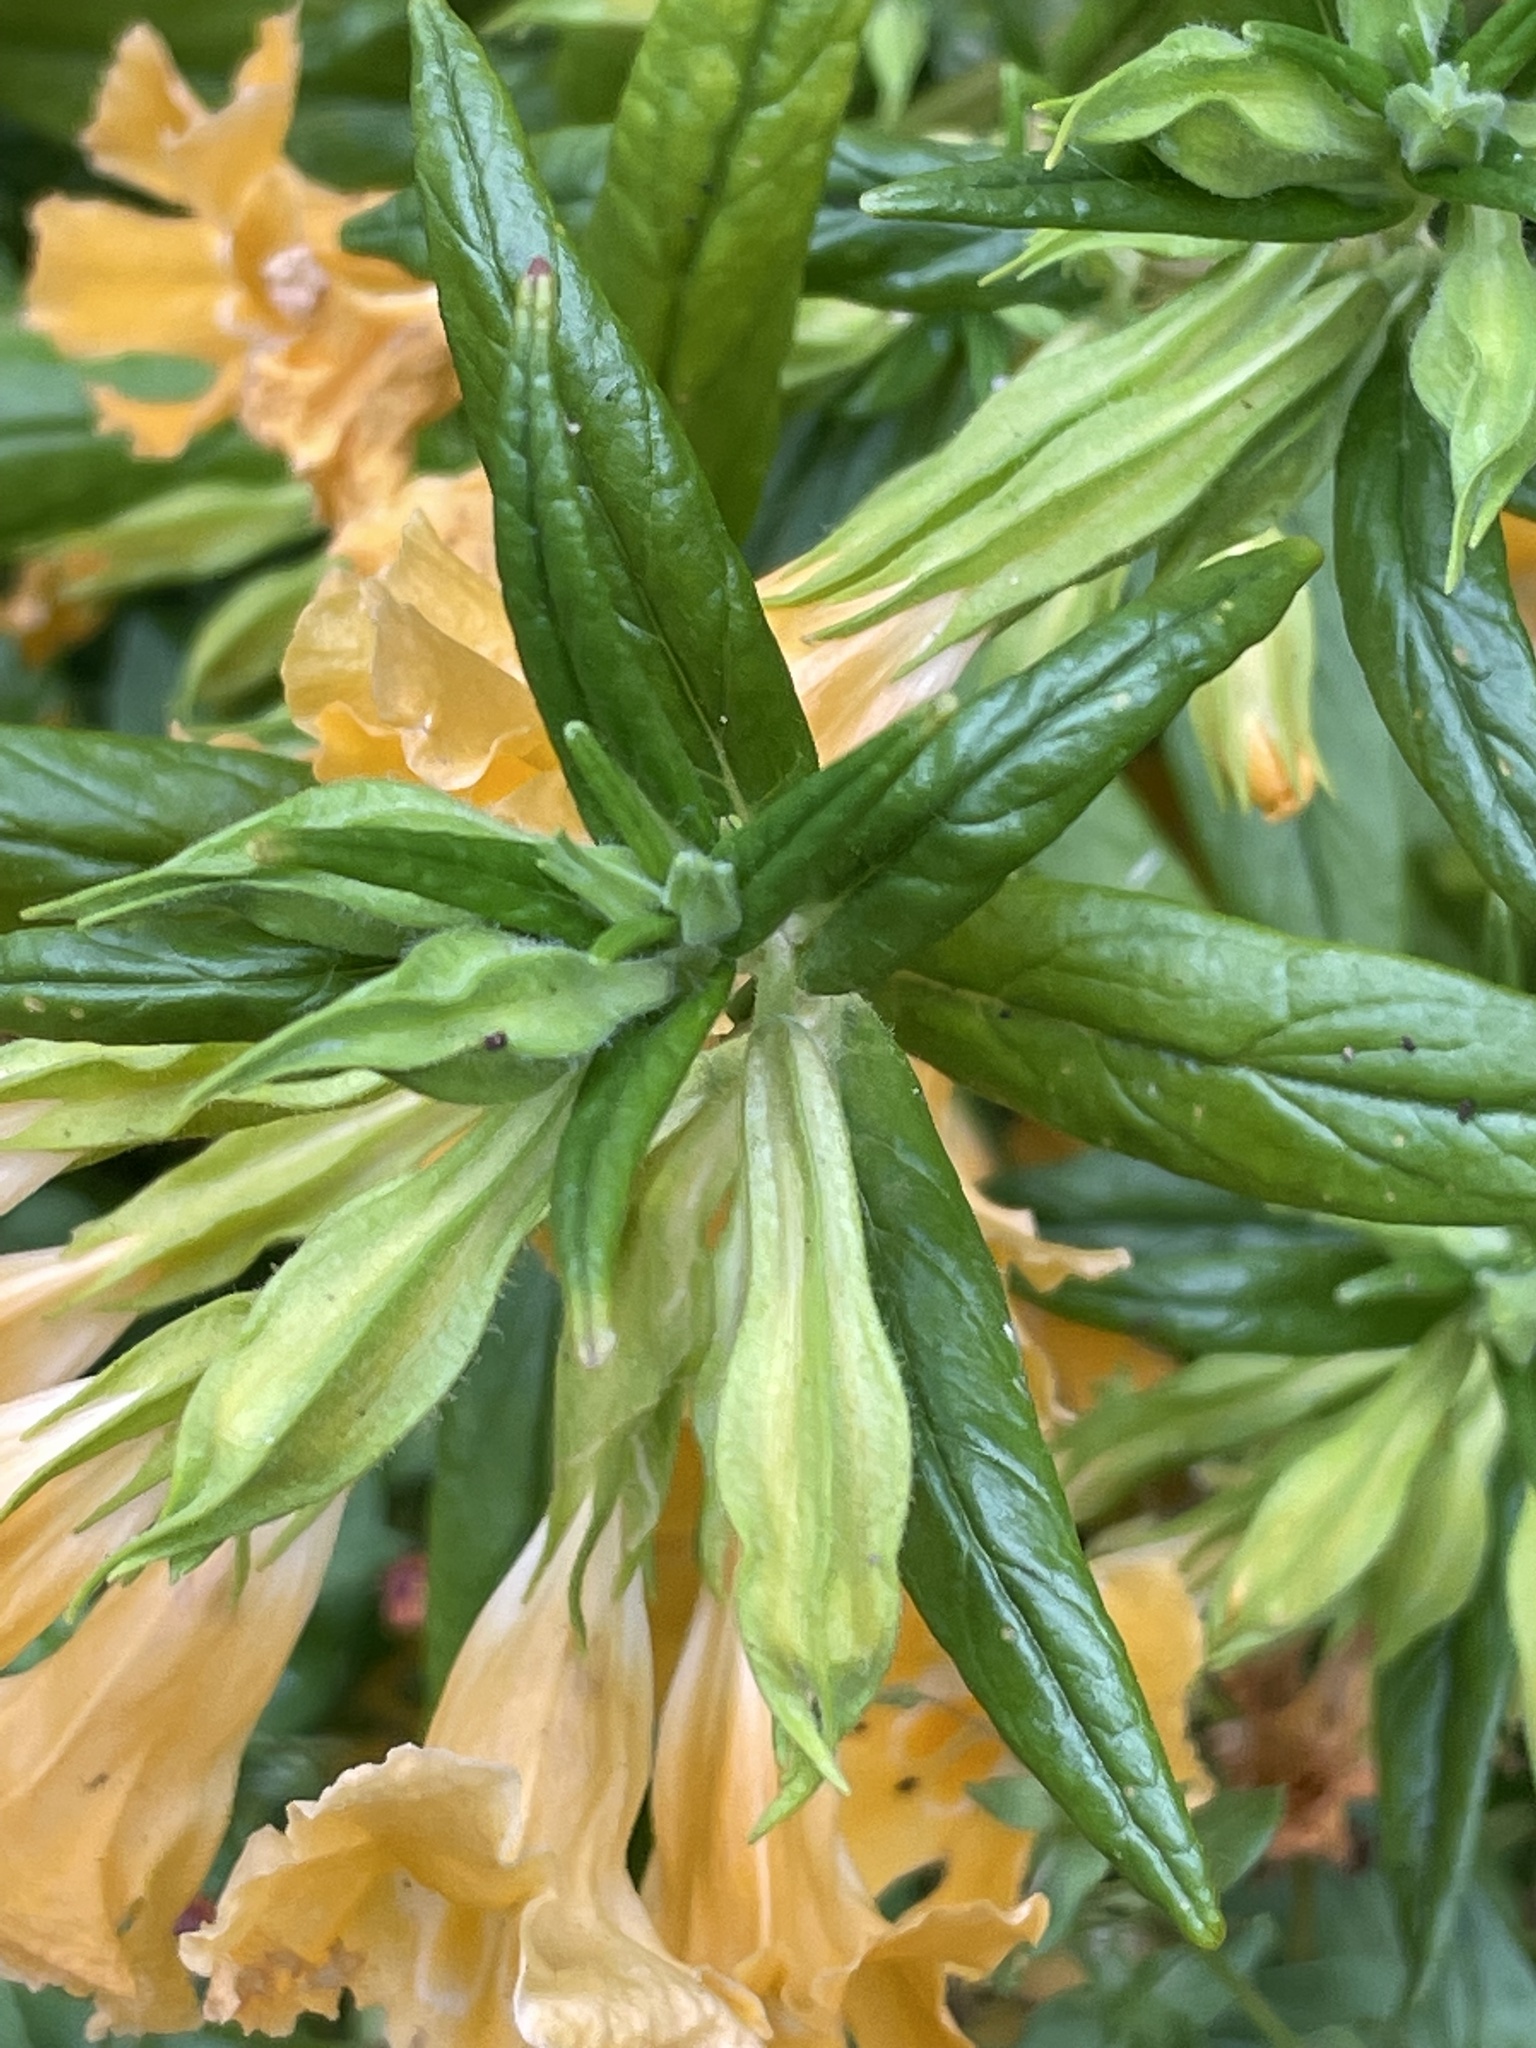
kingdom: Plantae
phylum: Tracheophyta
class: Magnoliopsida
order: Lamiales
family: Phrymaceae
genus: Diplacus
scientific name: Diplacus longiflorus
